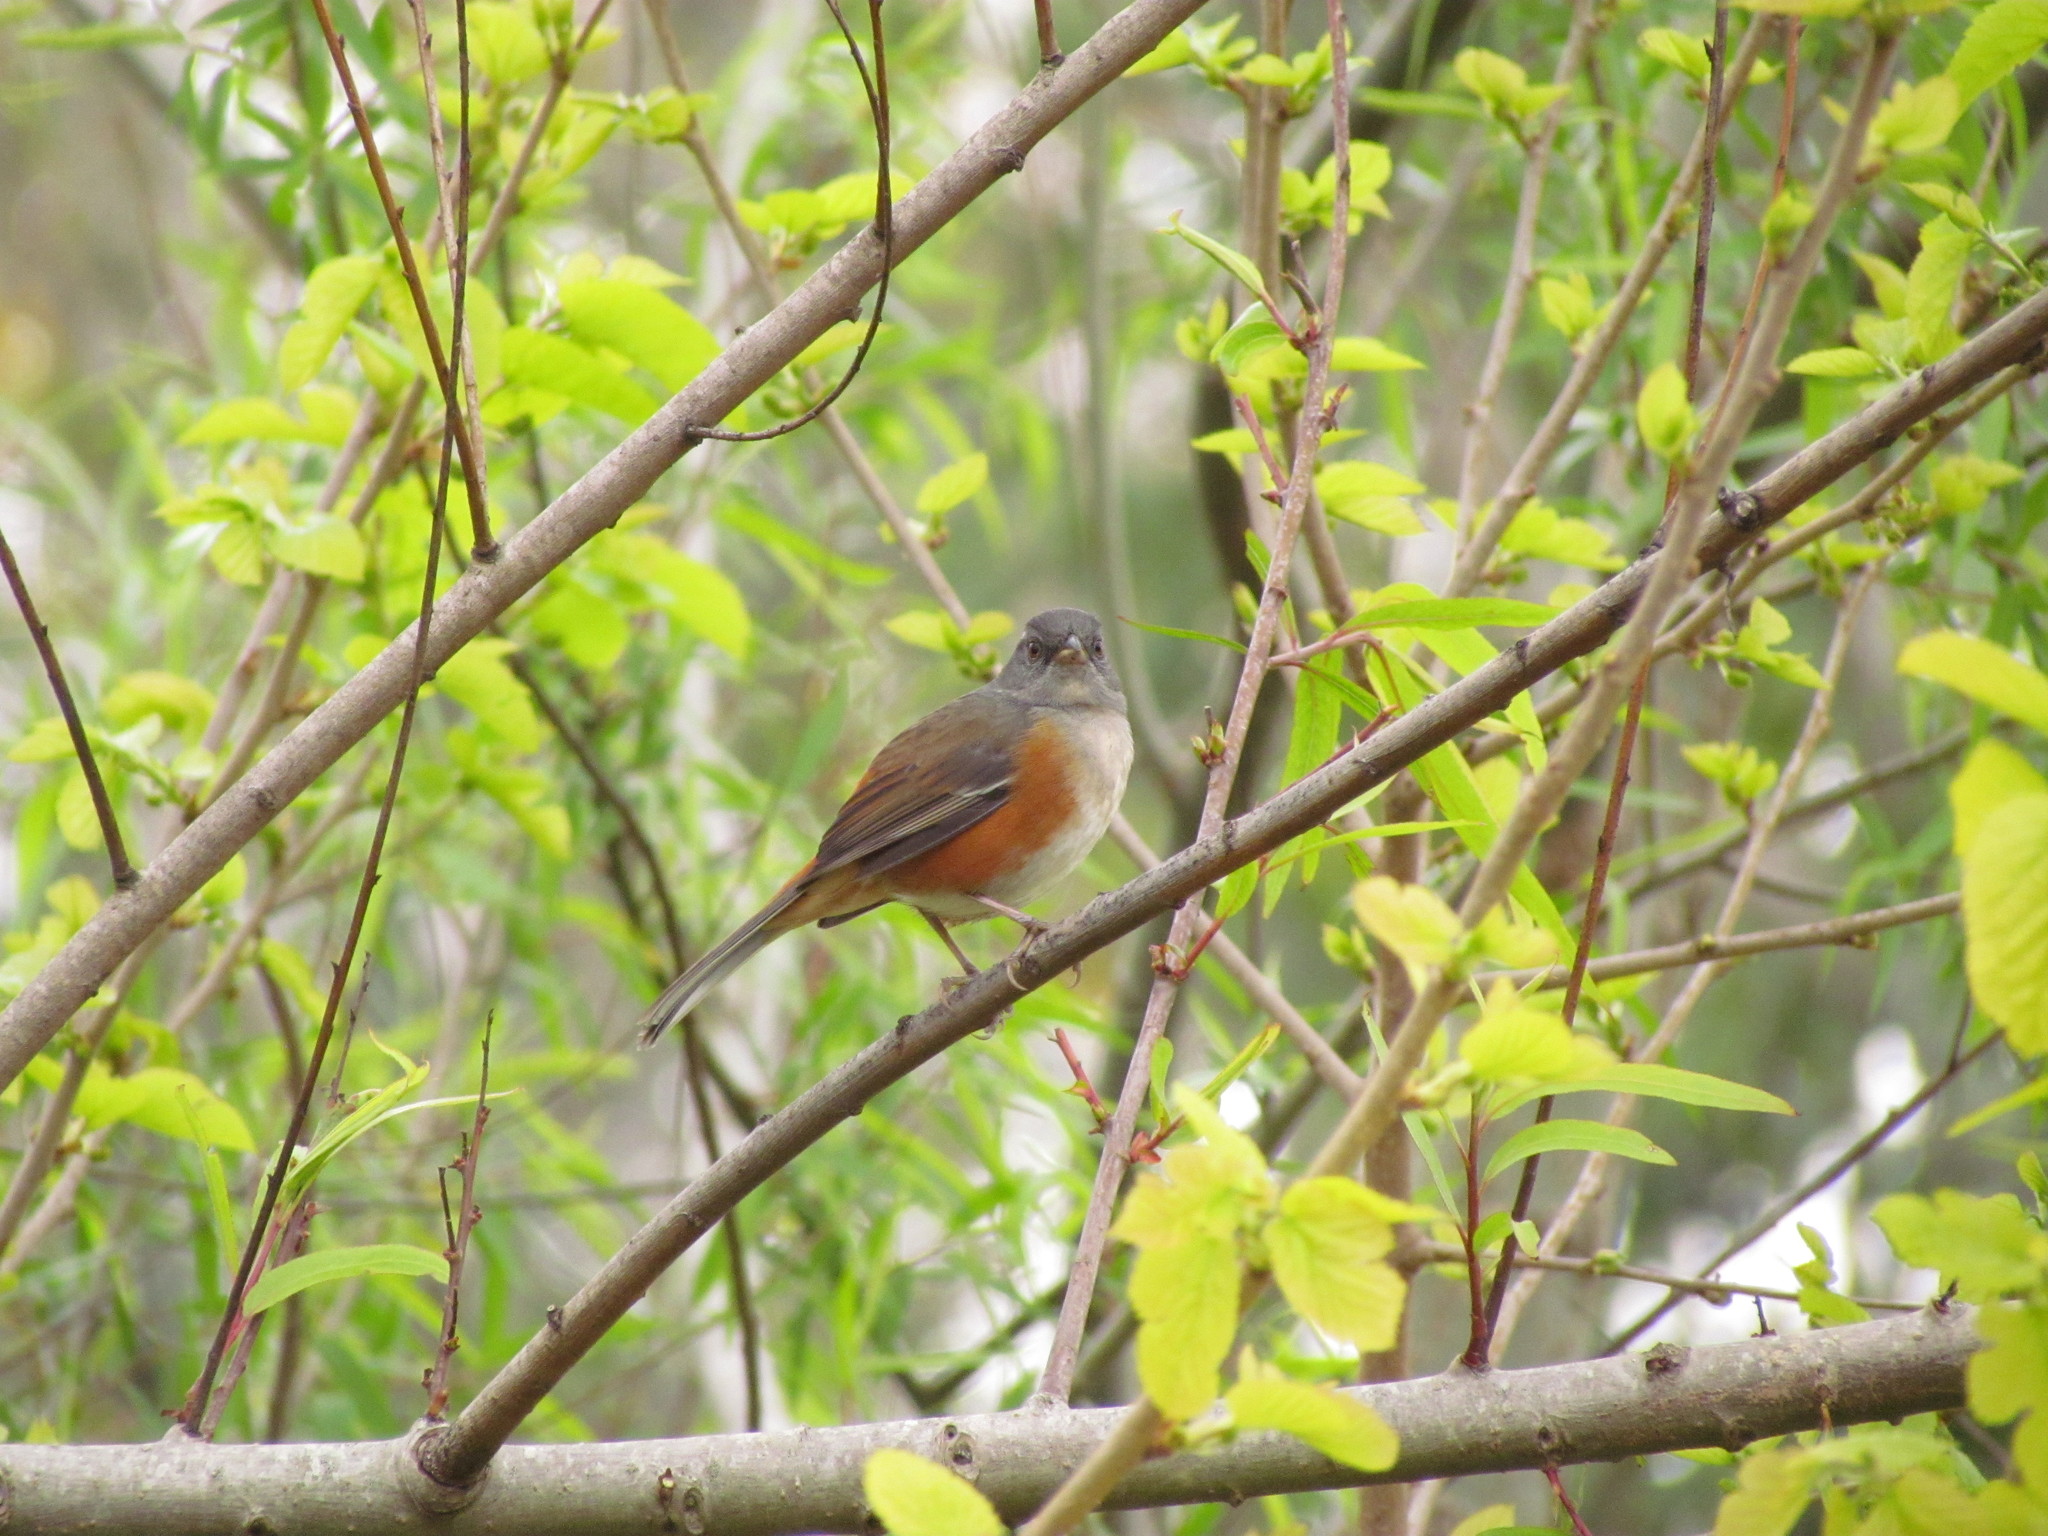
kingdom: Animalia
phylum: Chordata
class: Aves
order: Passeriformes
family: Thraupidae
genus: Microspingus
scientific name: Microspingus cabanisi
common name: Gray-throated warbling-finch
